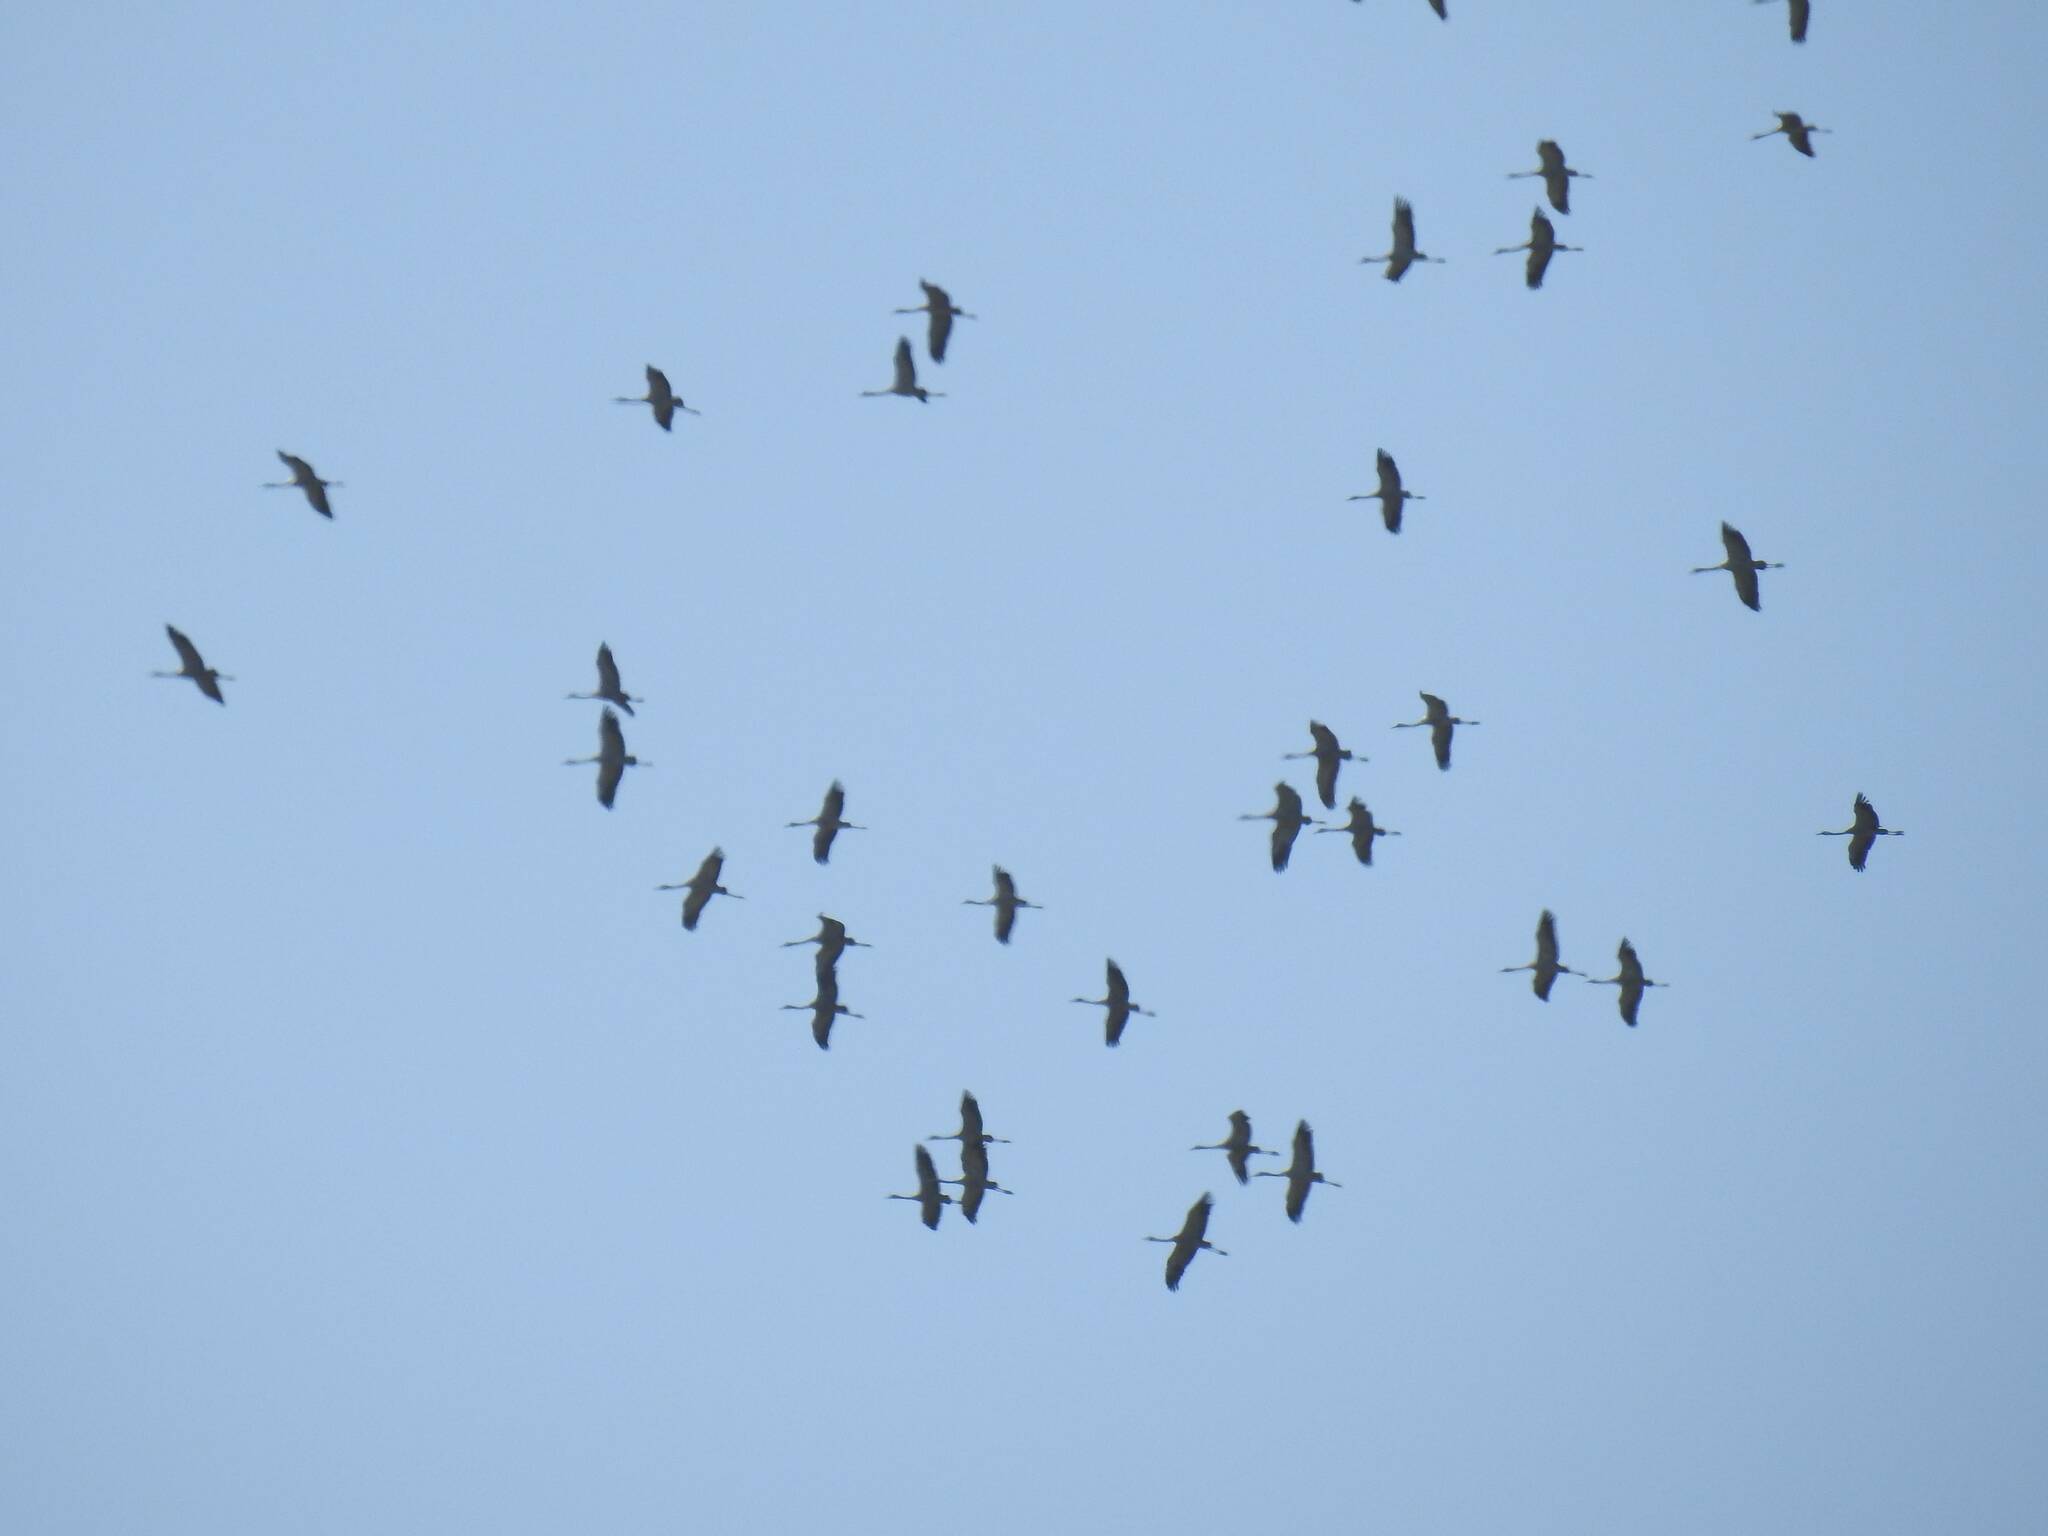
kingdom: Animalia
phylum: Chordata
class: Aves
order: Gruiformes
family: Gruidae
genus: Grus
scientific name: Grus grus
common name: Common crane
